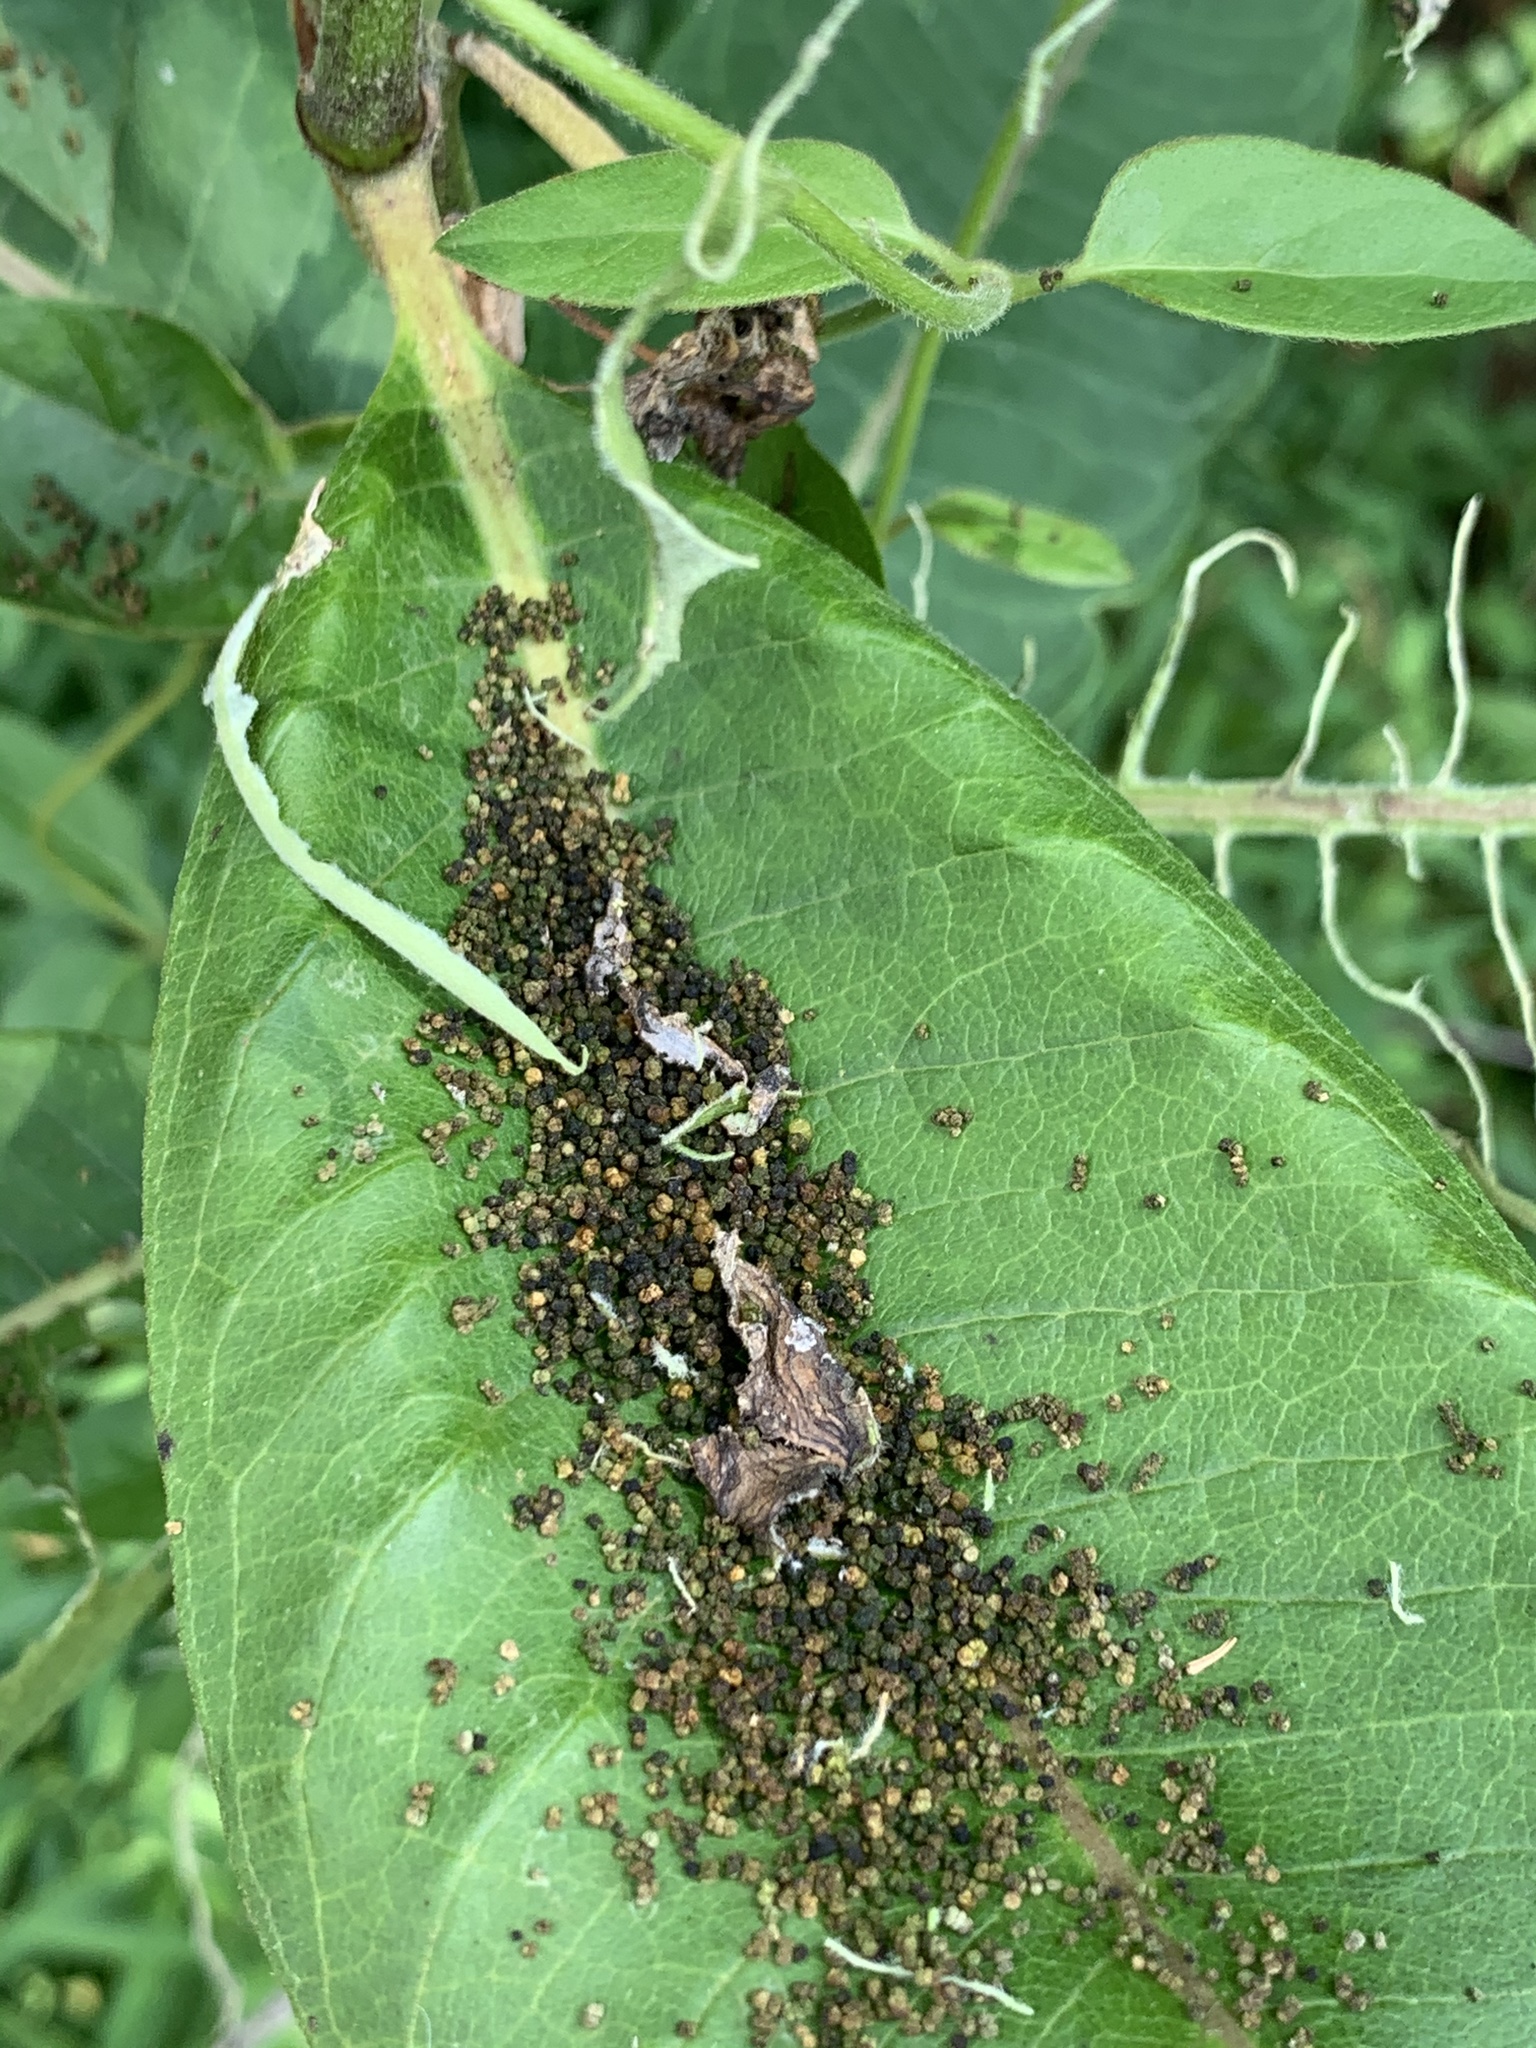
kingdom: Animalia
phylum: Arthropoda
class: Insecta
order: Lepidoptera
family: Erebidae
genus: Euchaetes
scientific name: Euchaetes egle
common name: Milkweed tussock moth
